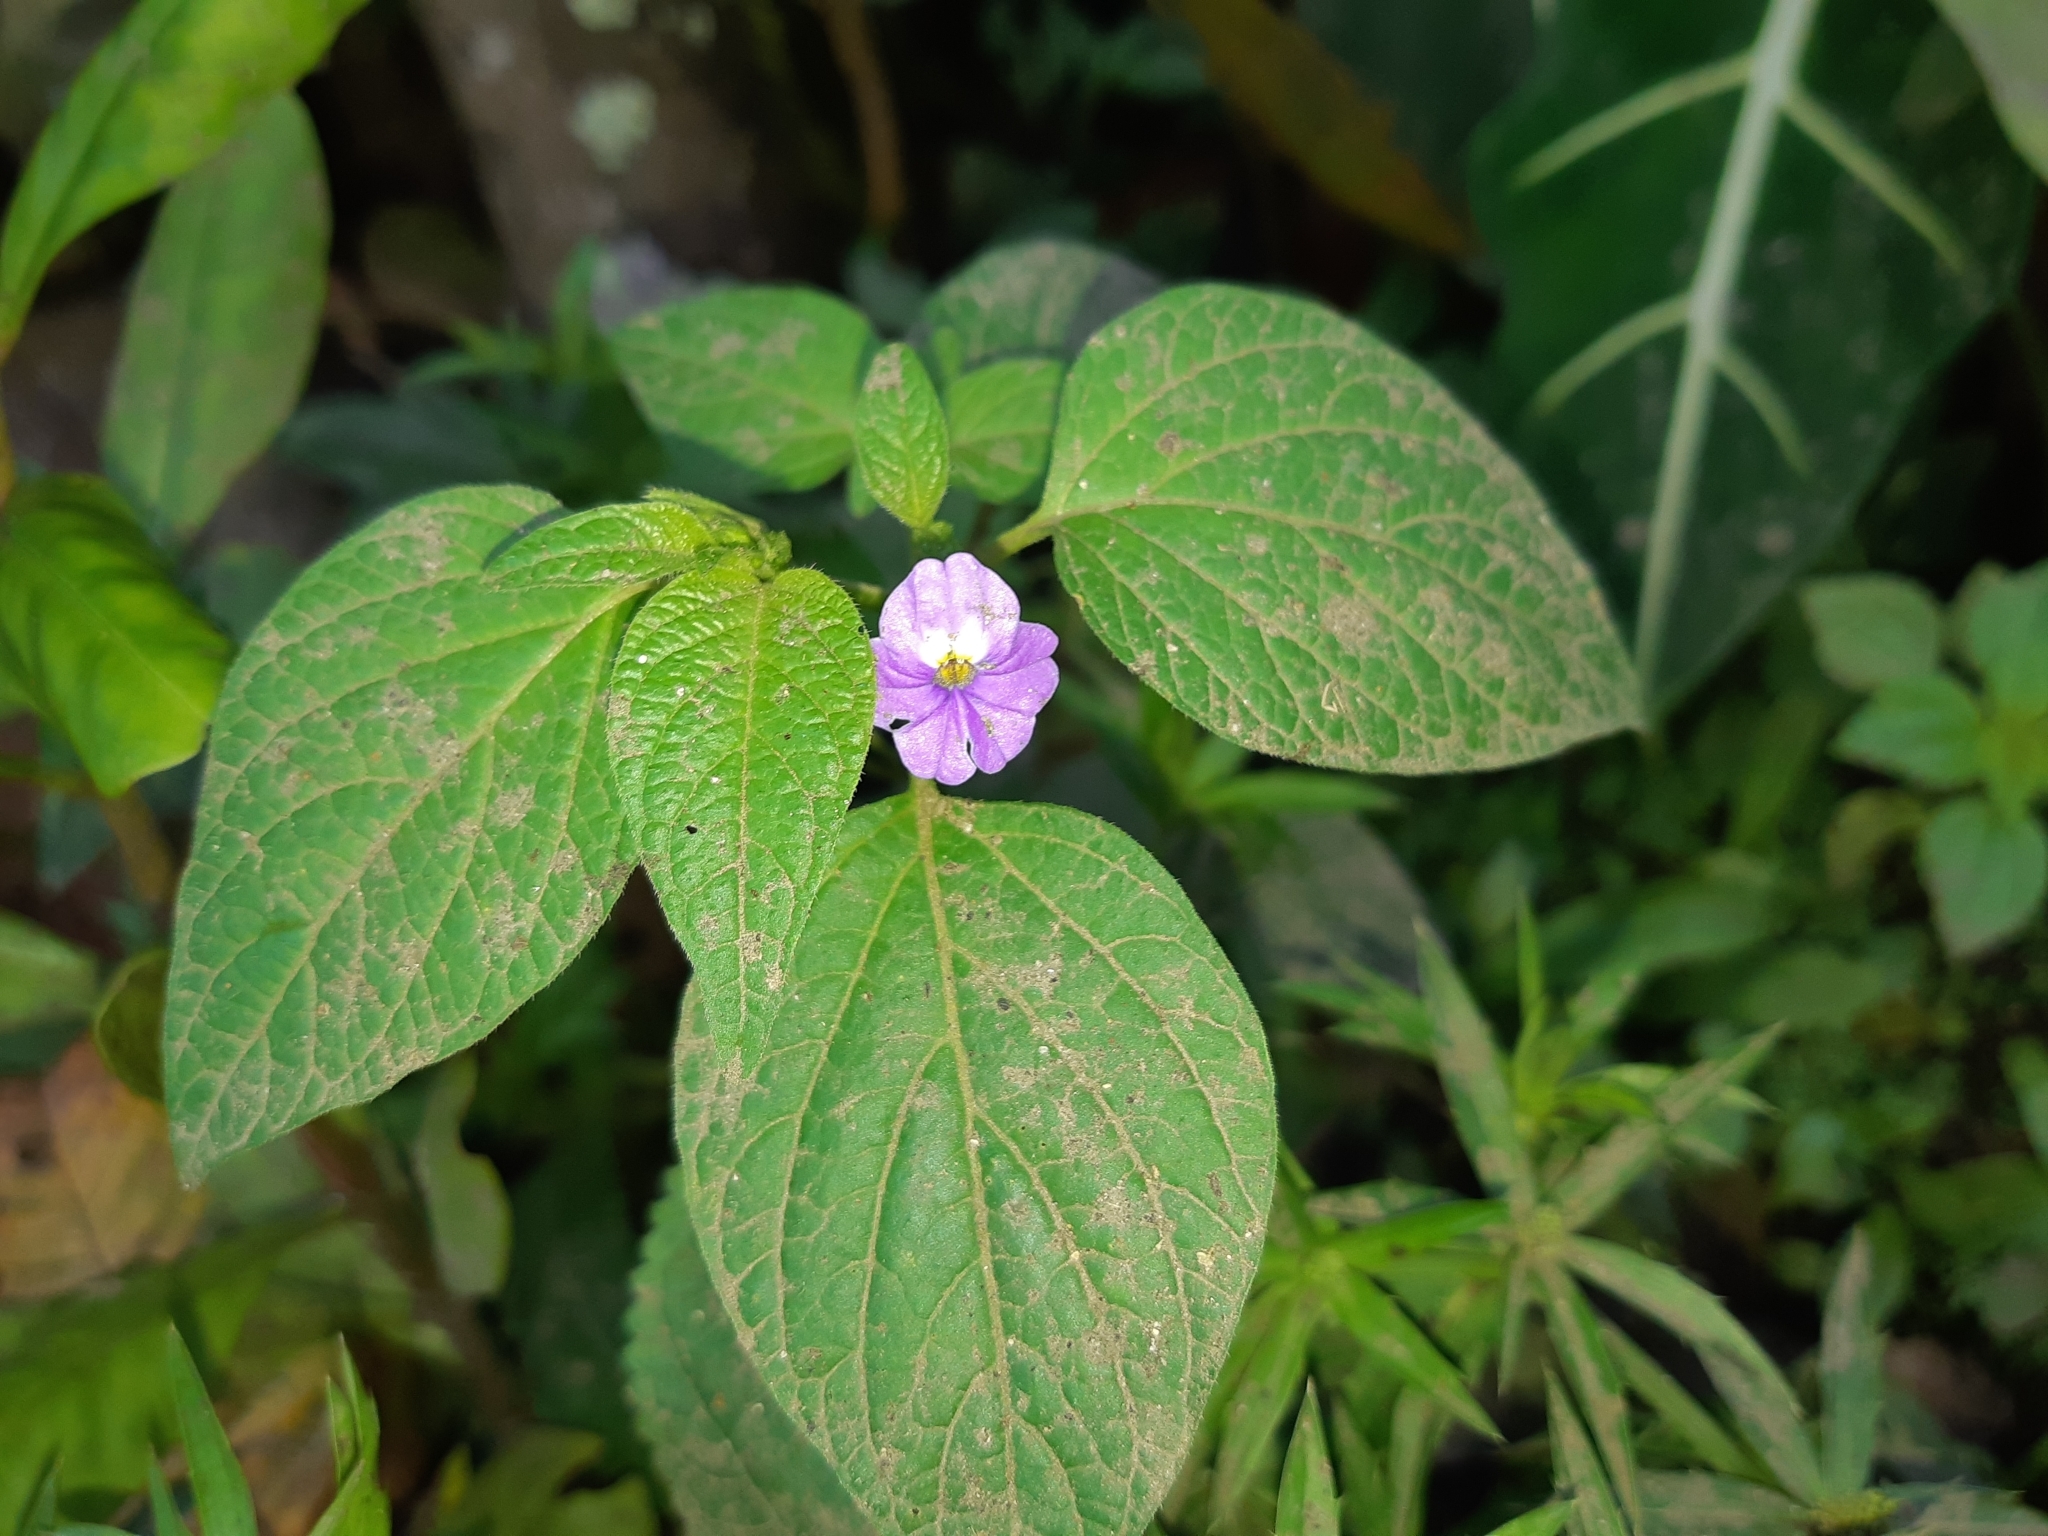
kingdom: Plantae
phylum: Tracheophyta
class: Magnoliopsida
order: Solanales
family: Solanaceae
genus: Browallia
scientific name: Browallia americana
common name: Jamaican forget-me-not
